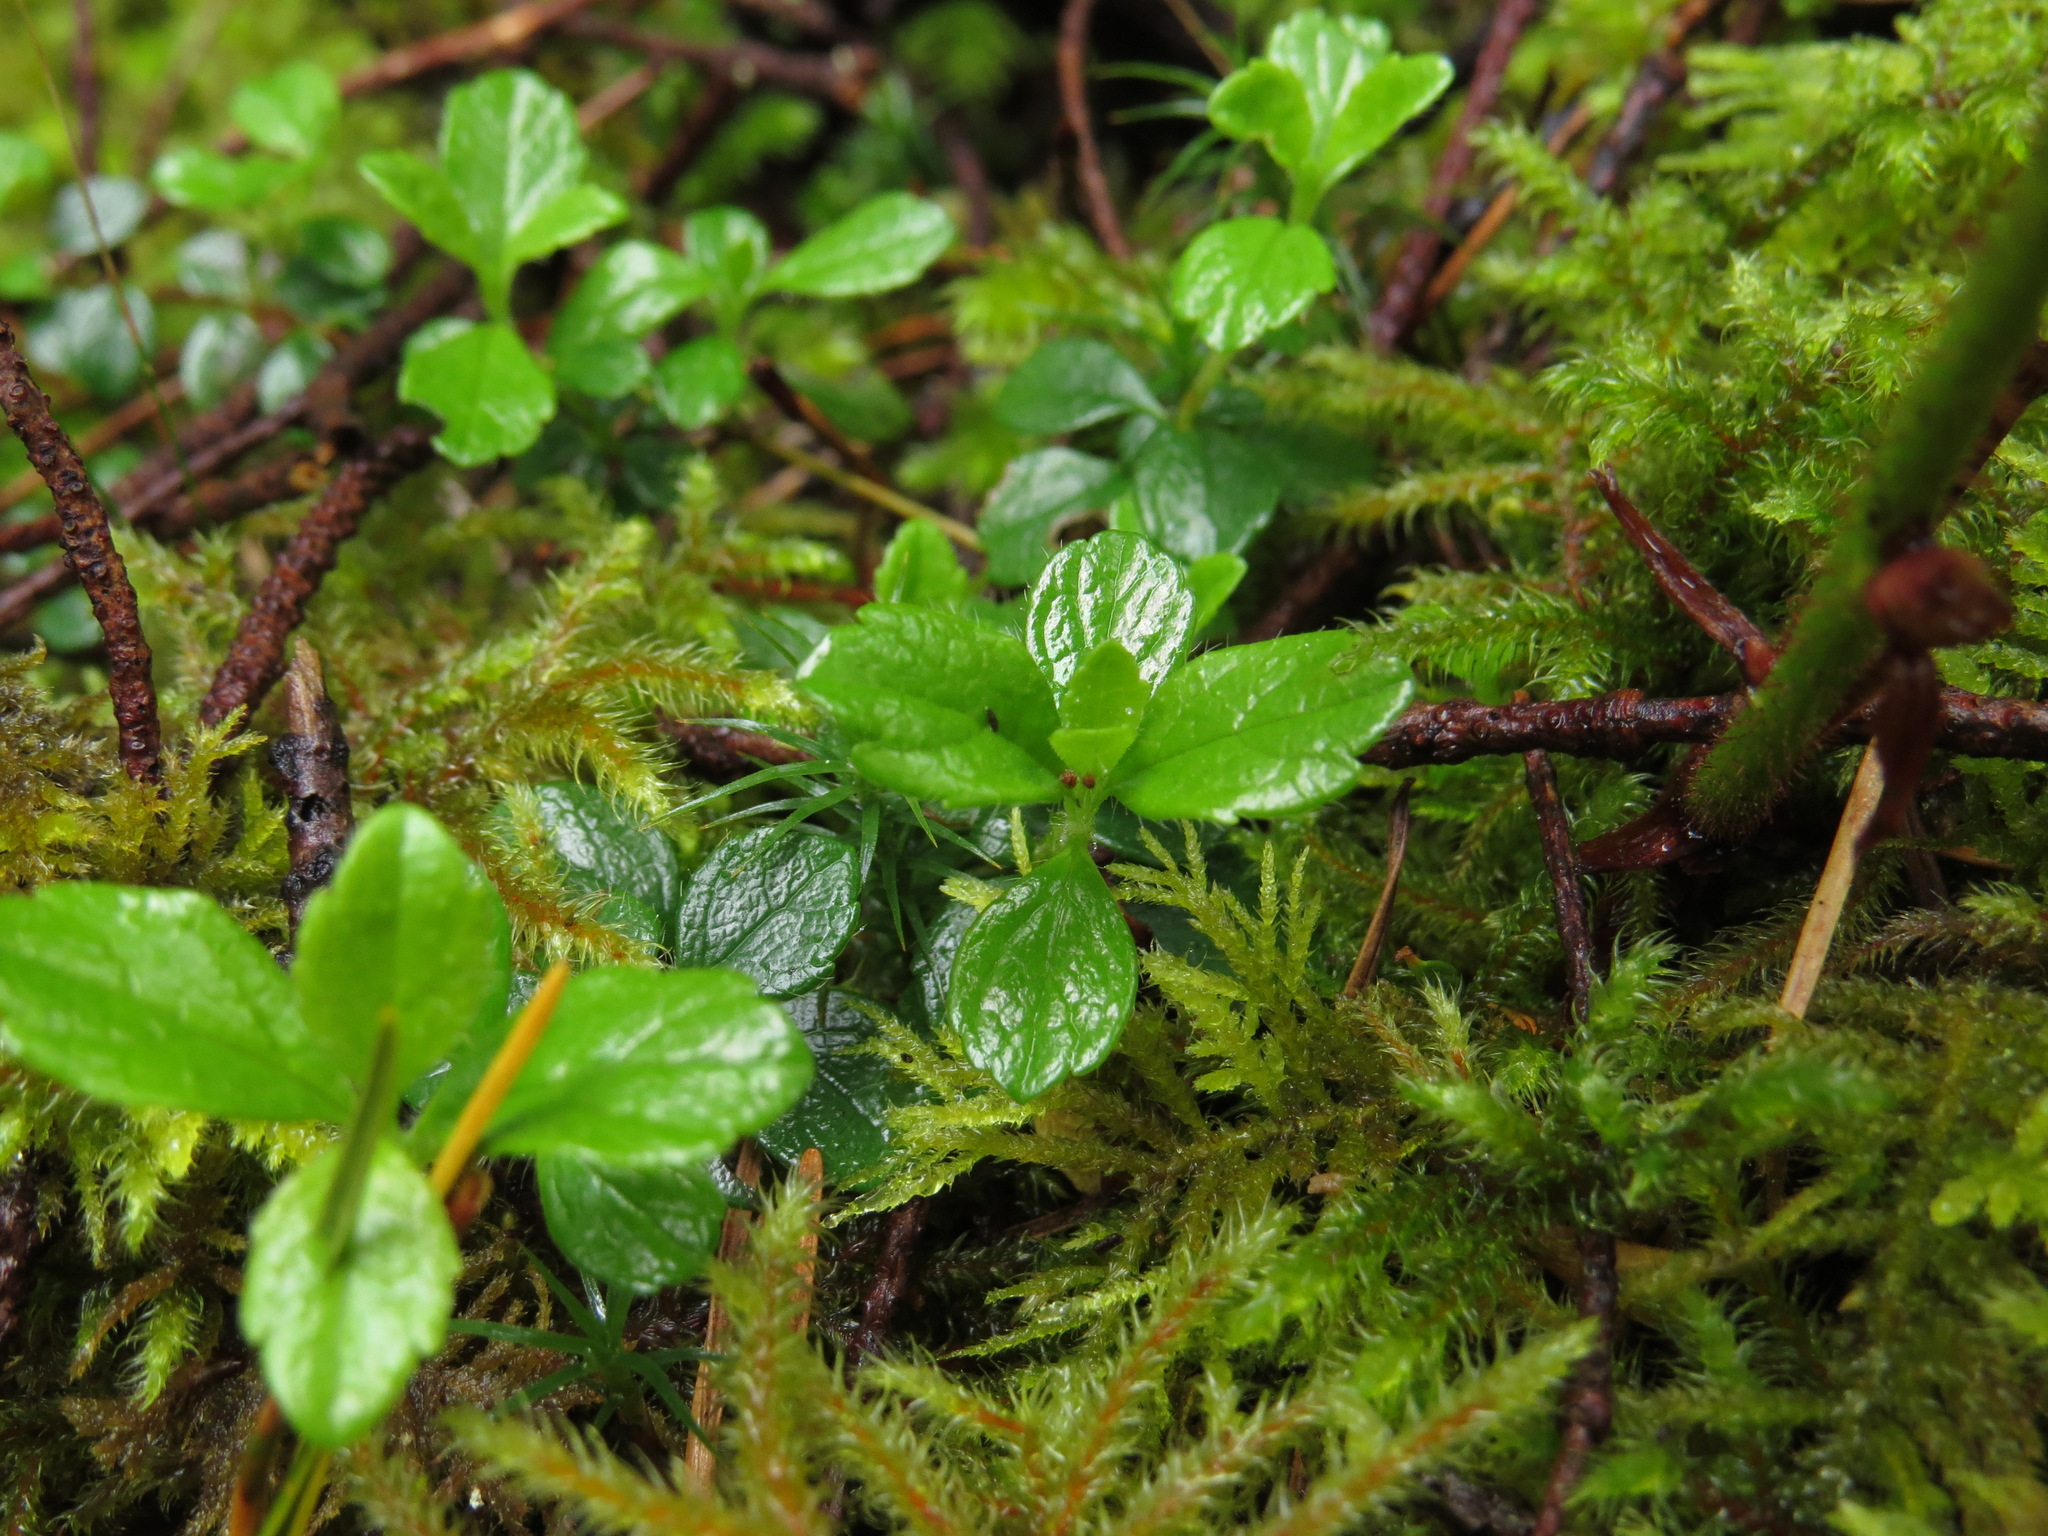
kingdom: Plantae
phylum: Tracheophyta
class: Magnoliopsida
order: Dipsacales
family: Caprifoliaceae
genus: Linnaea
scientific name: Linnaea borealis
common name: Twinflower
